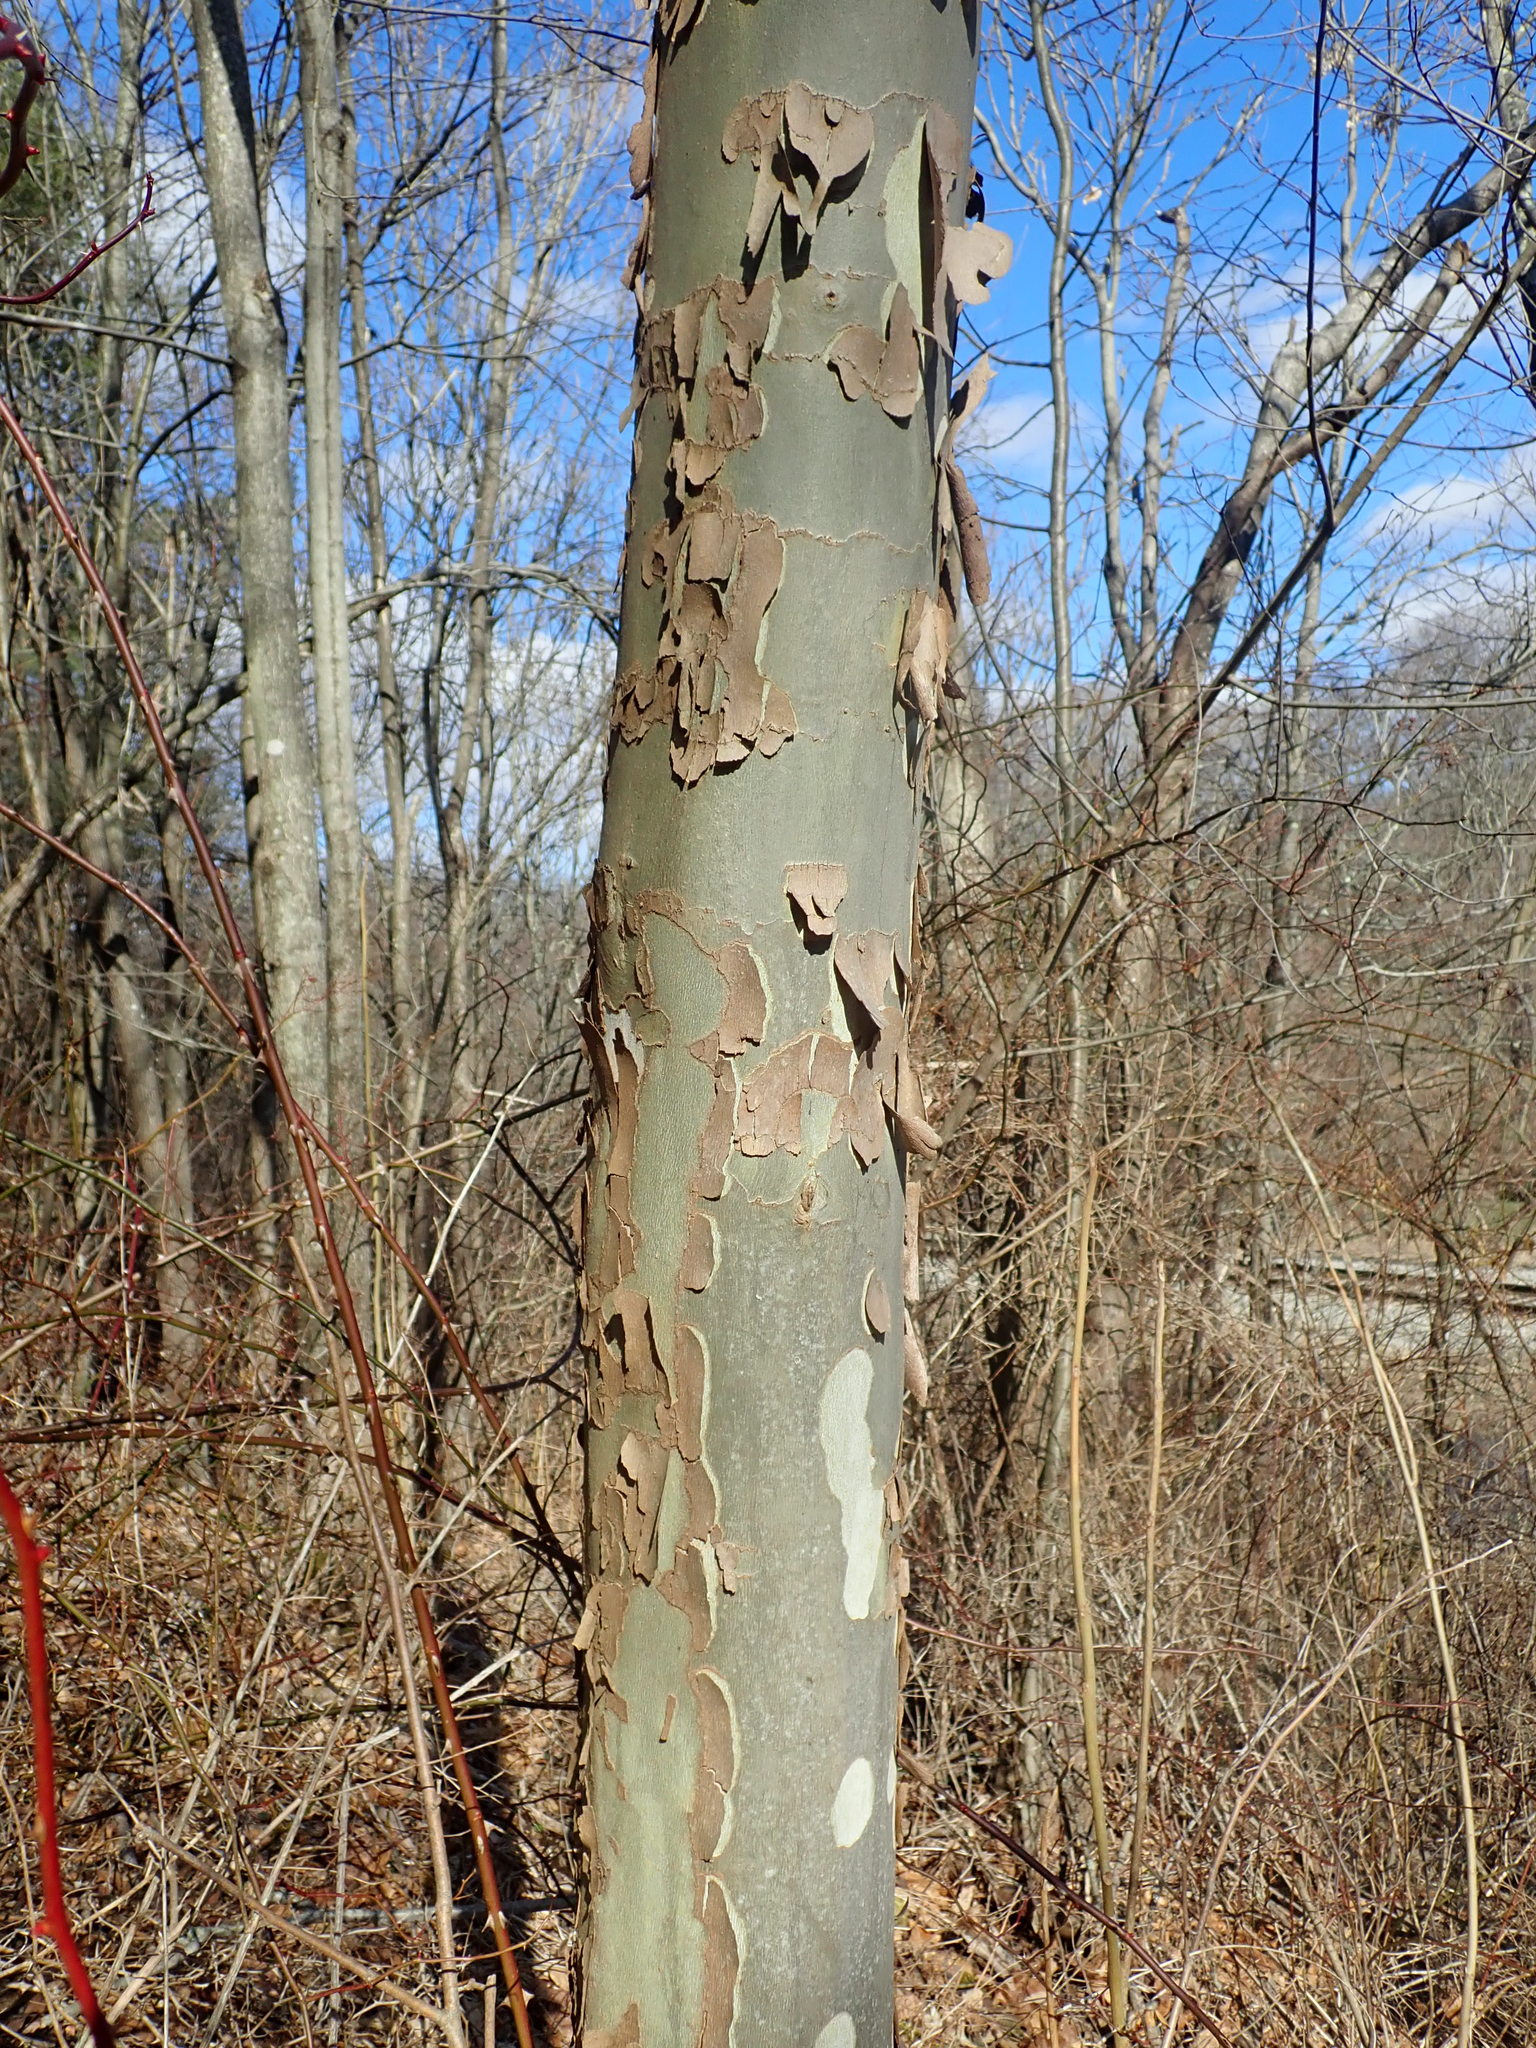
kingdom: Plantae
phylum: Tracheophyta
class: Magnoliopsida
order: Proteales
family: Platanaceae
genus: Platanus
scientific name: Platanus occidentalis
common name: American sycamore
